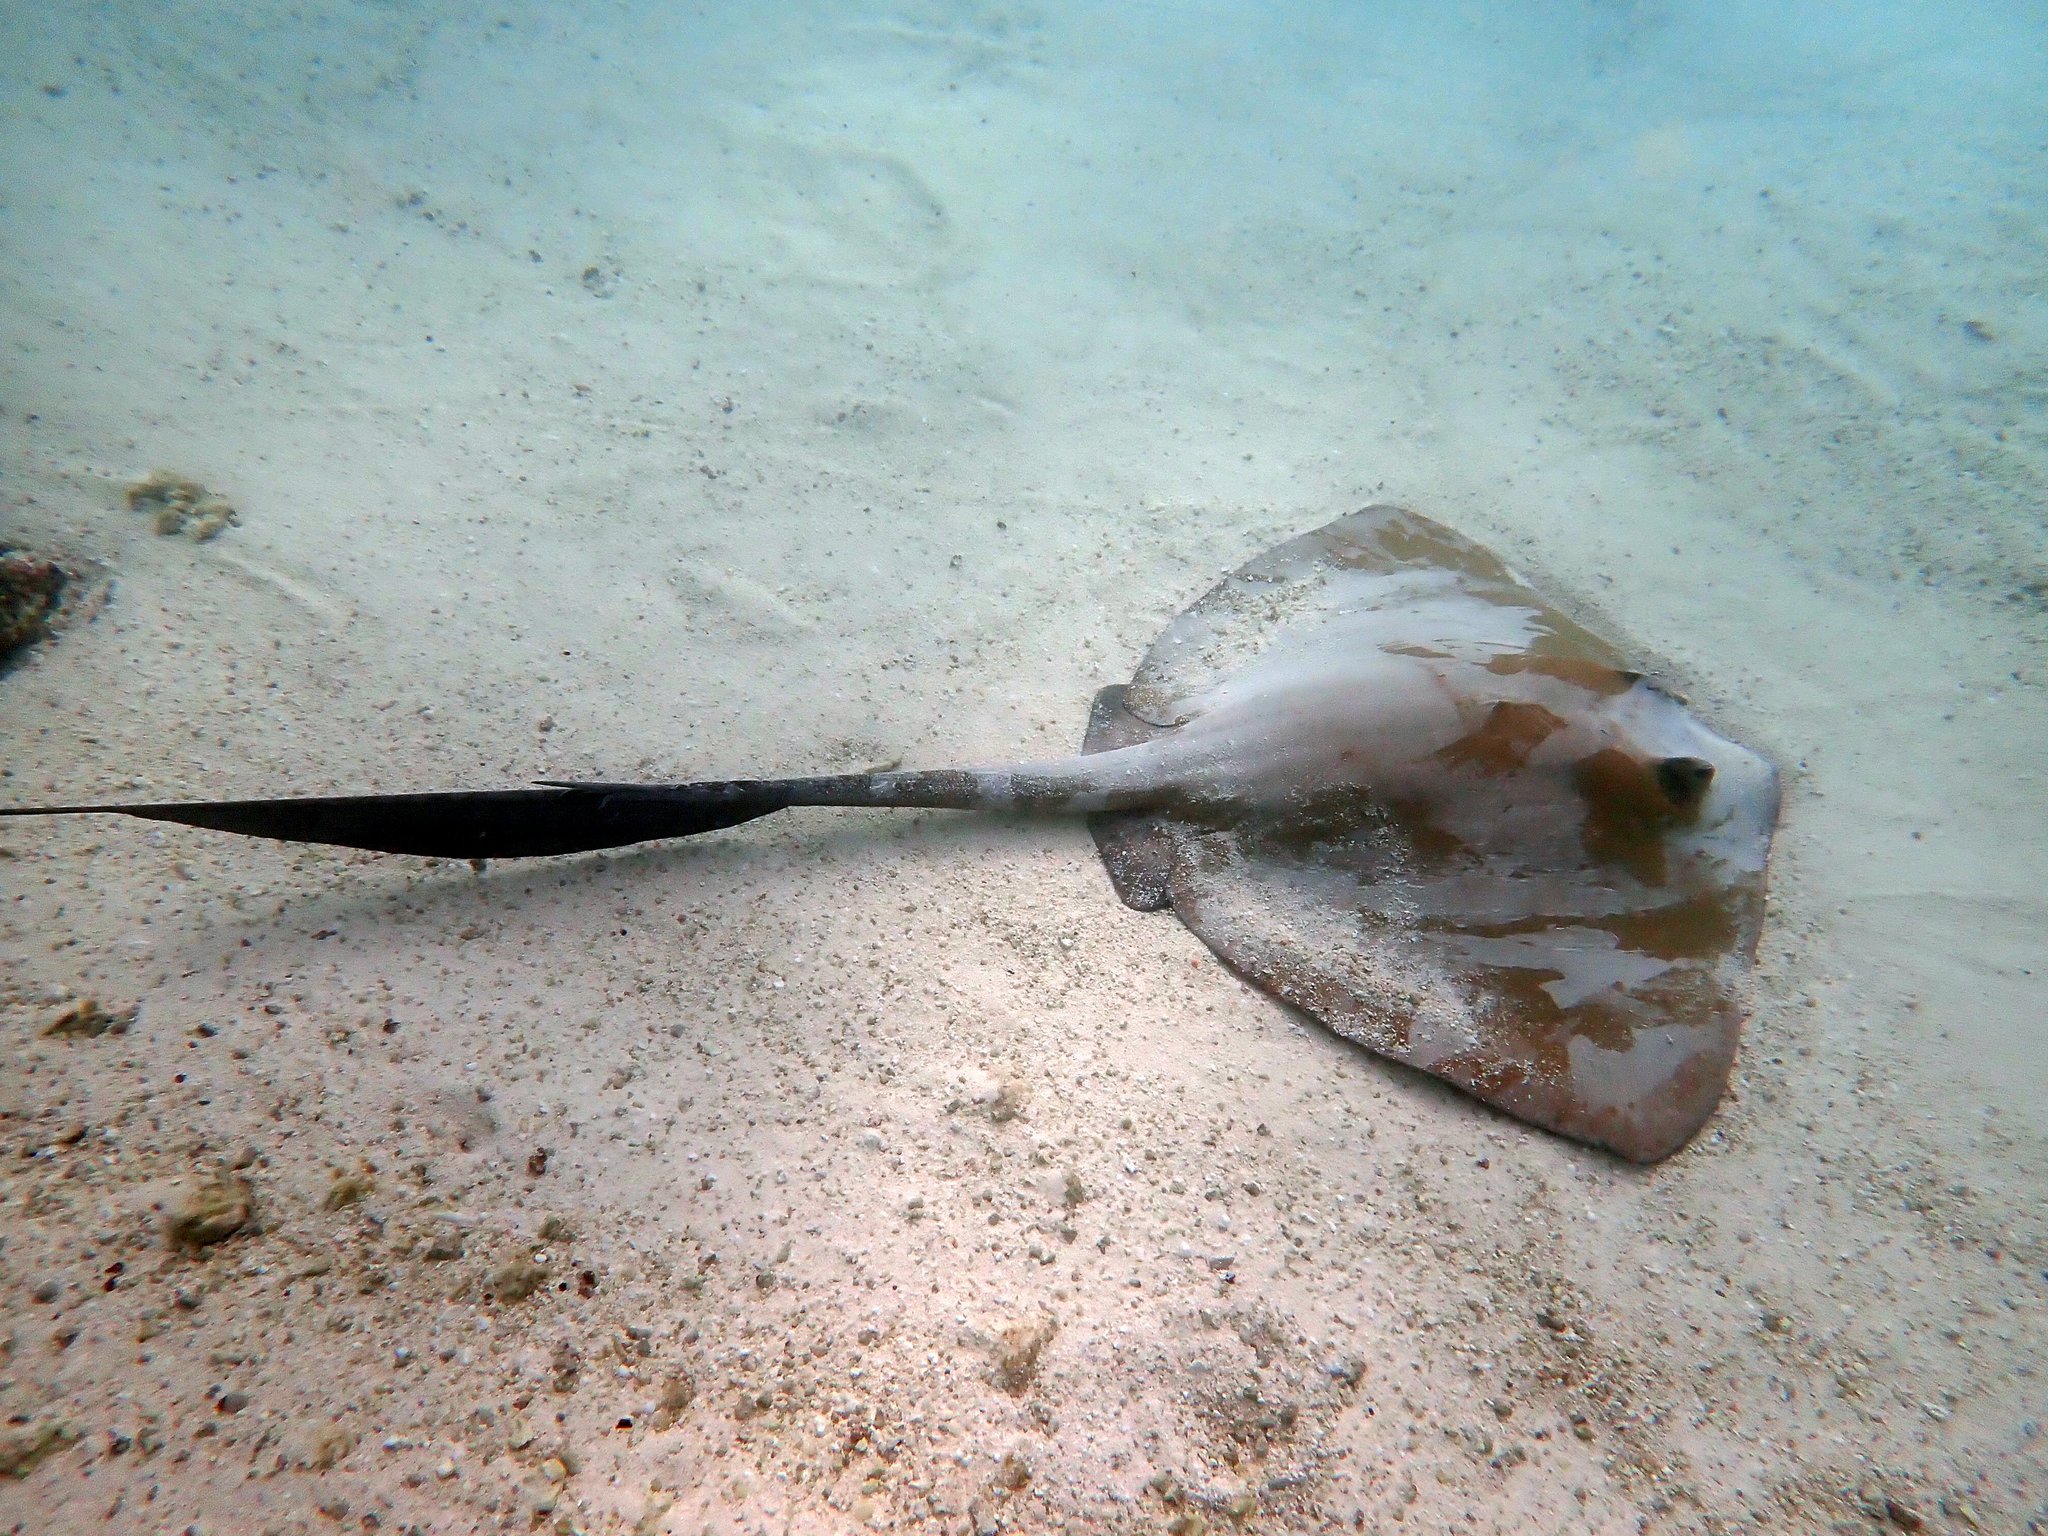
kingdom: Animalia
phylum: Chordata
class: Elasmobranchii
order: Myliobatiformes
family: Dasyatidae
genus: Pastinachus
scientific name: Pastinachus ater
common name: Banana-tail ray
